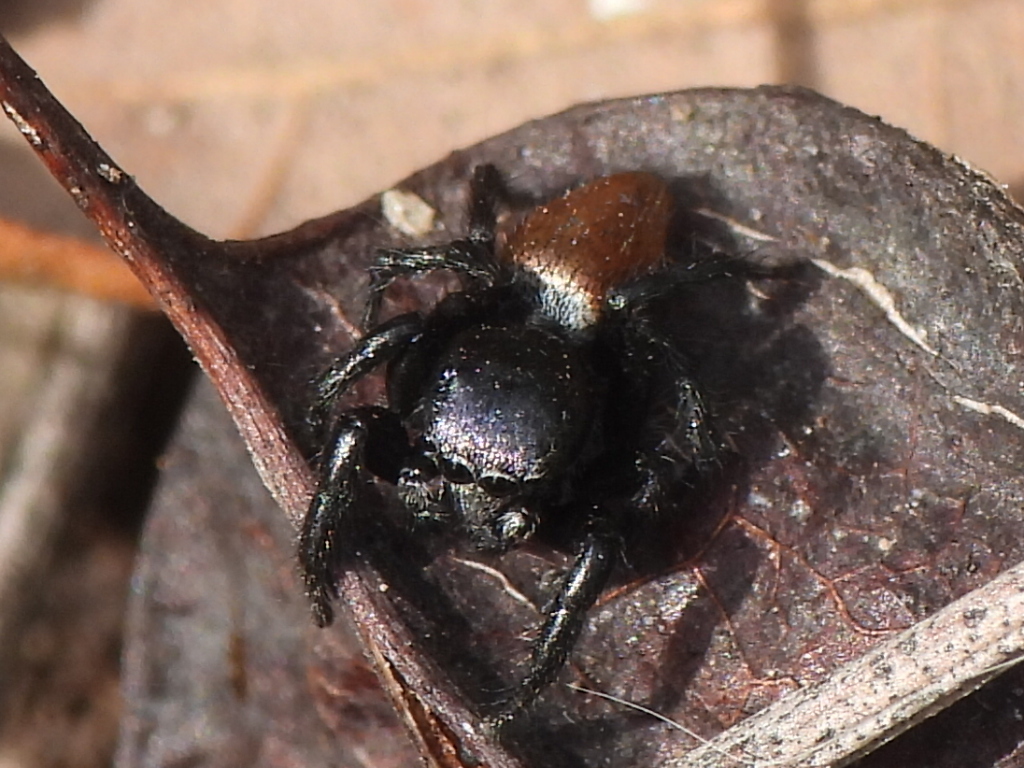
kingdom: Animalia
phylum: Arthropoda
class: Arachnida
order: Araneae
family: Salticidae
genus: Habronattus
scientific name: Habronattus decorus
